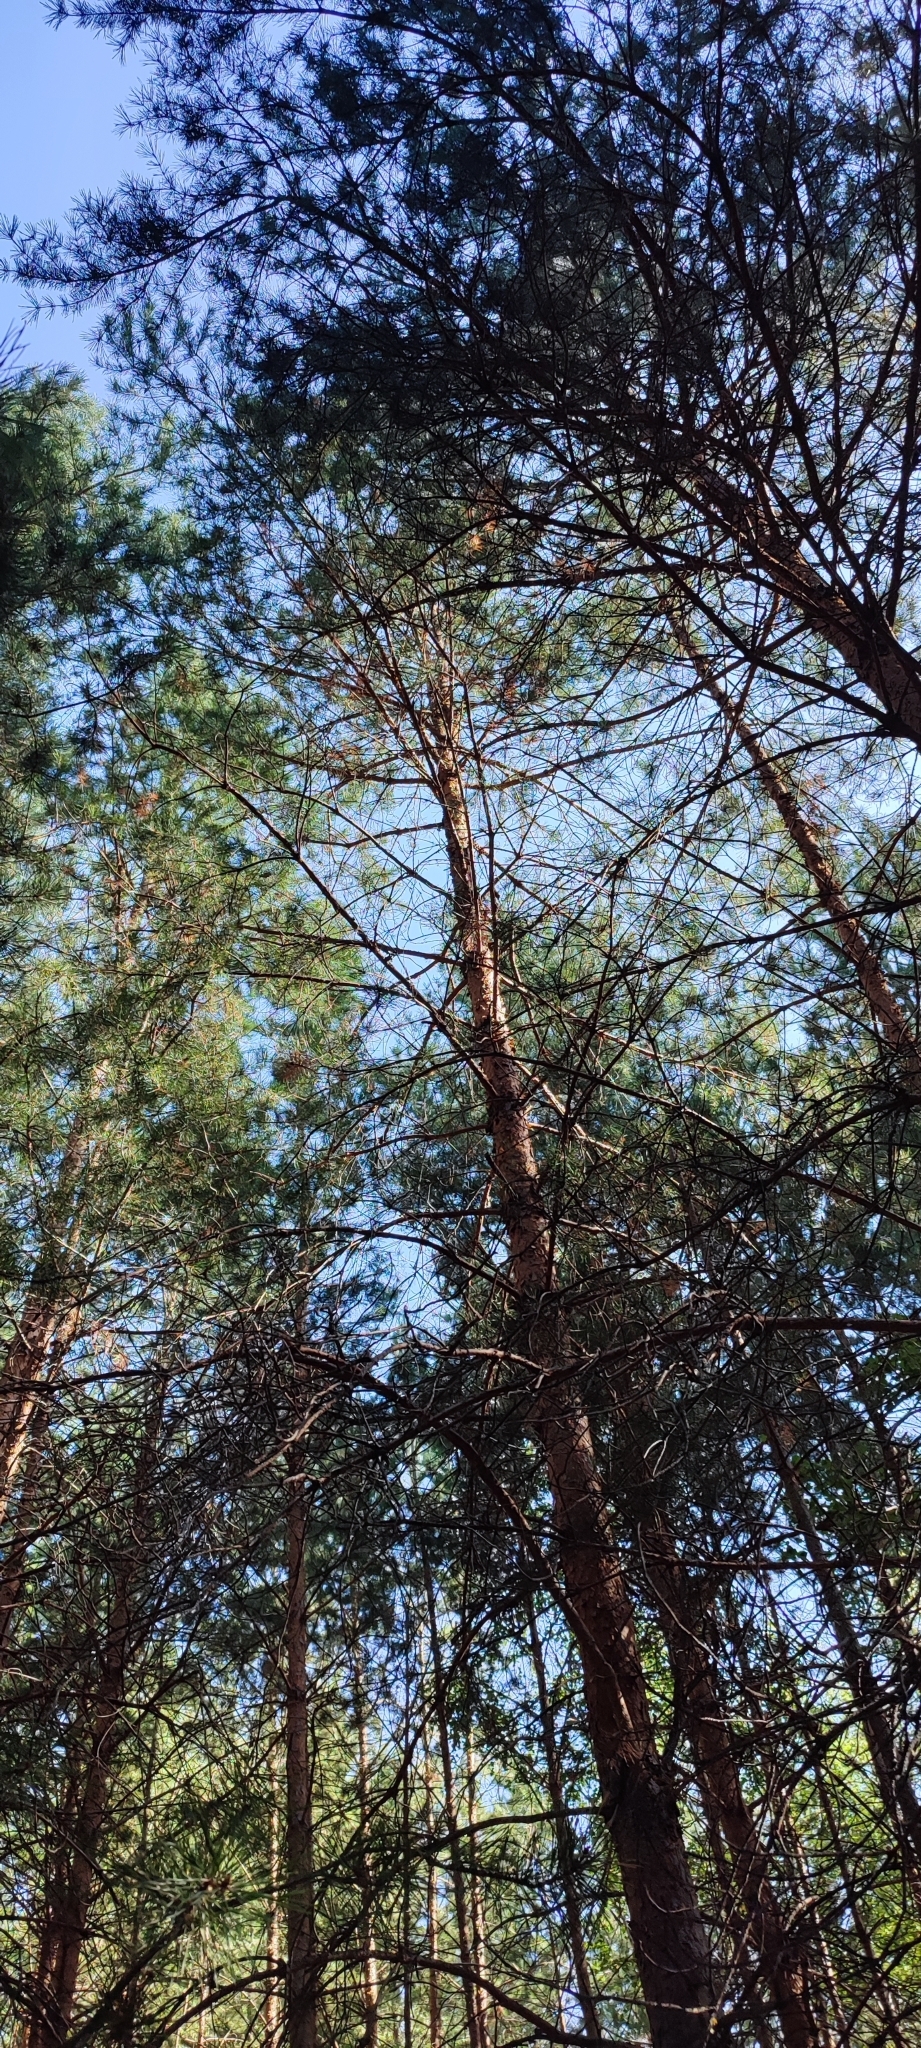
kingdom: Plantae
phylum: Tracheophyta
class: Pinopsida
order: Pinales
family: Pinaceae
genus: Pinus
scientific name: Pinus sylvestris
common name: Scots pine
